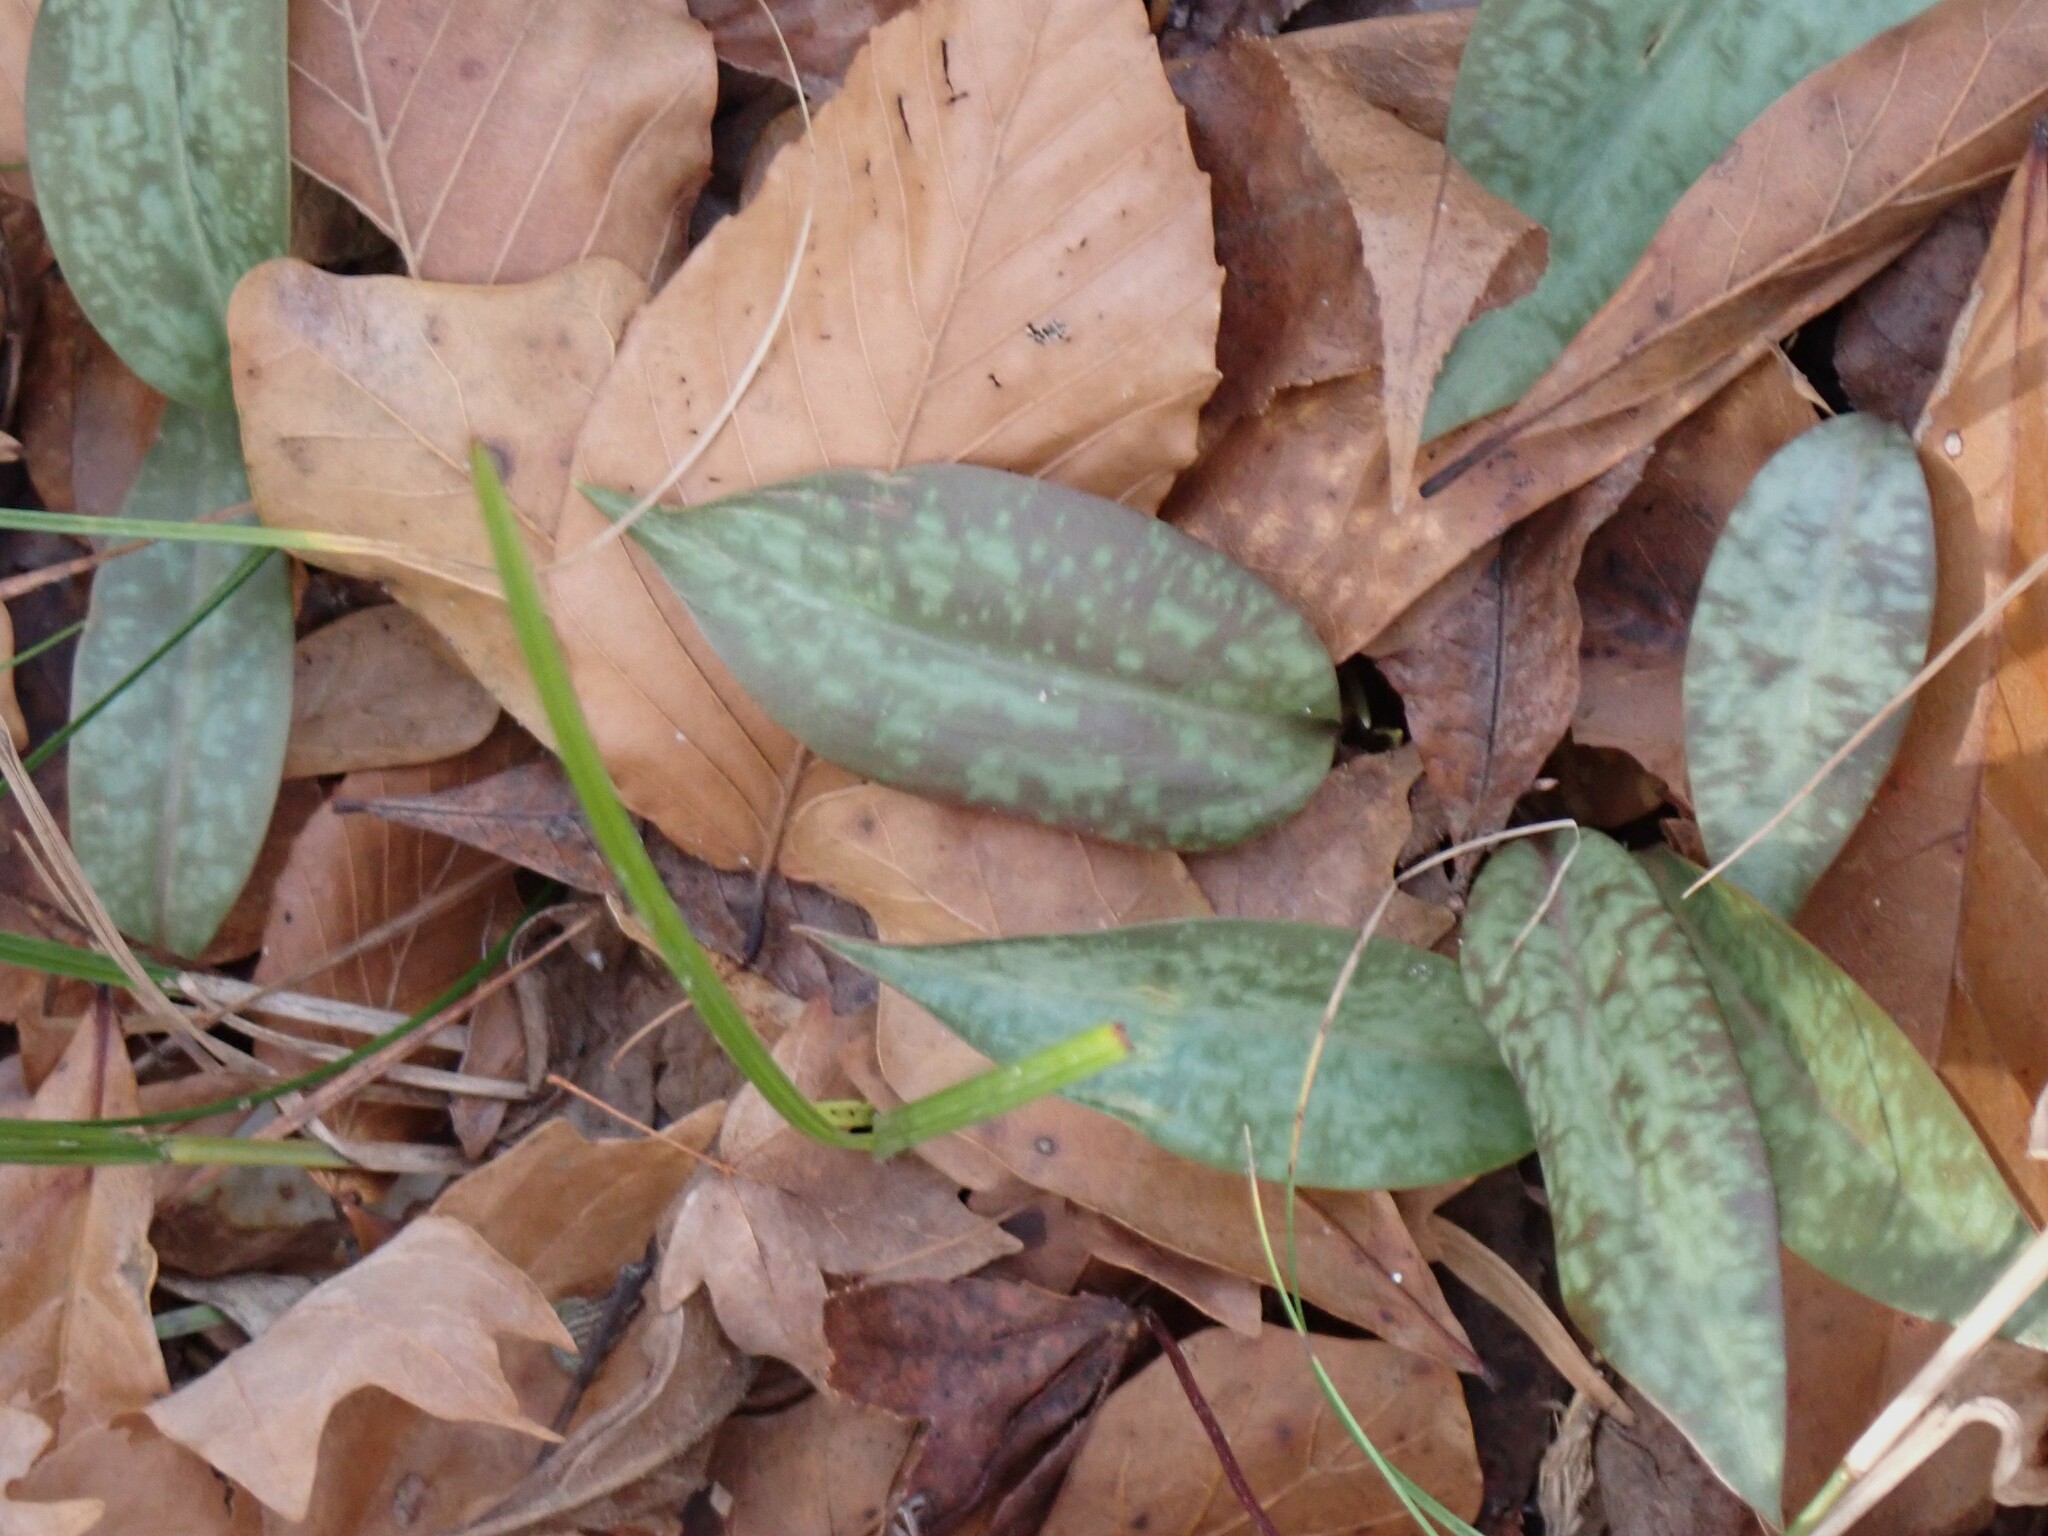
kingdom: Plantae
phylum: Tracheophyta
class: Liliopsida
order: Liliales
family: Liliaceae
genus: Erythronium
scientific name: Erythronium umbilicatum
